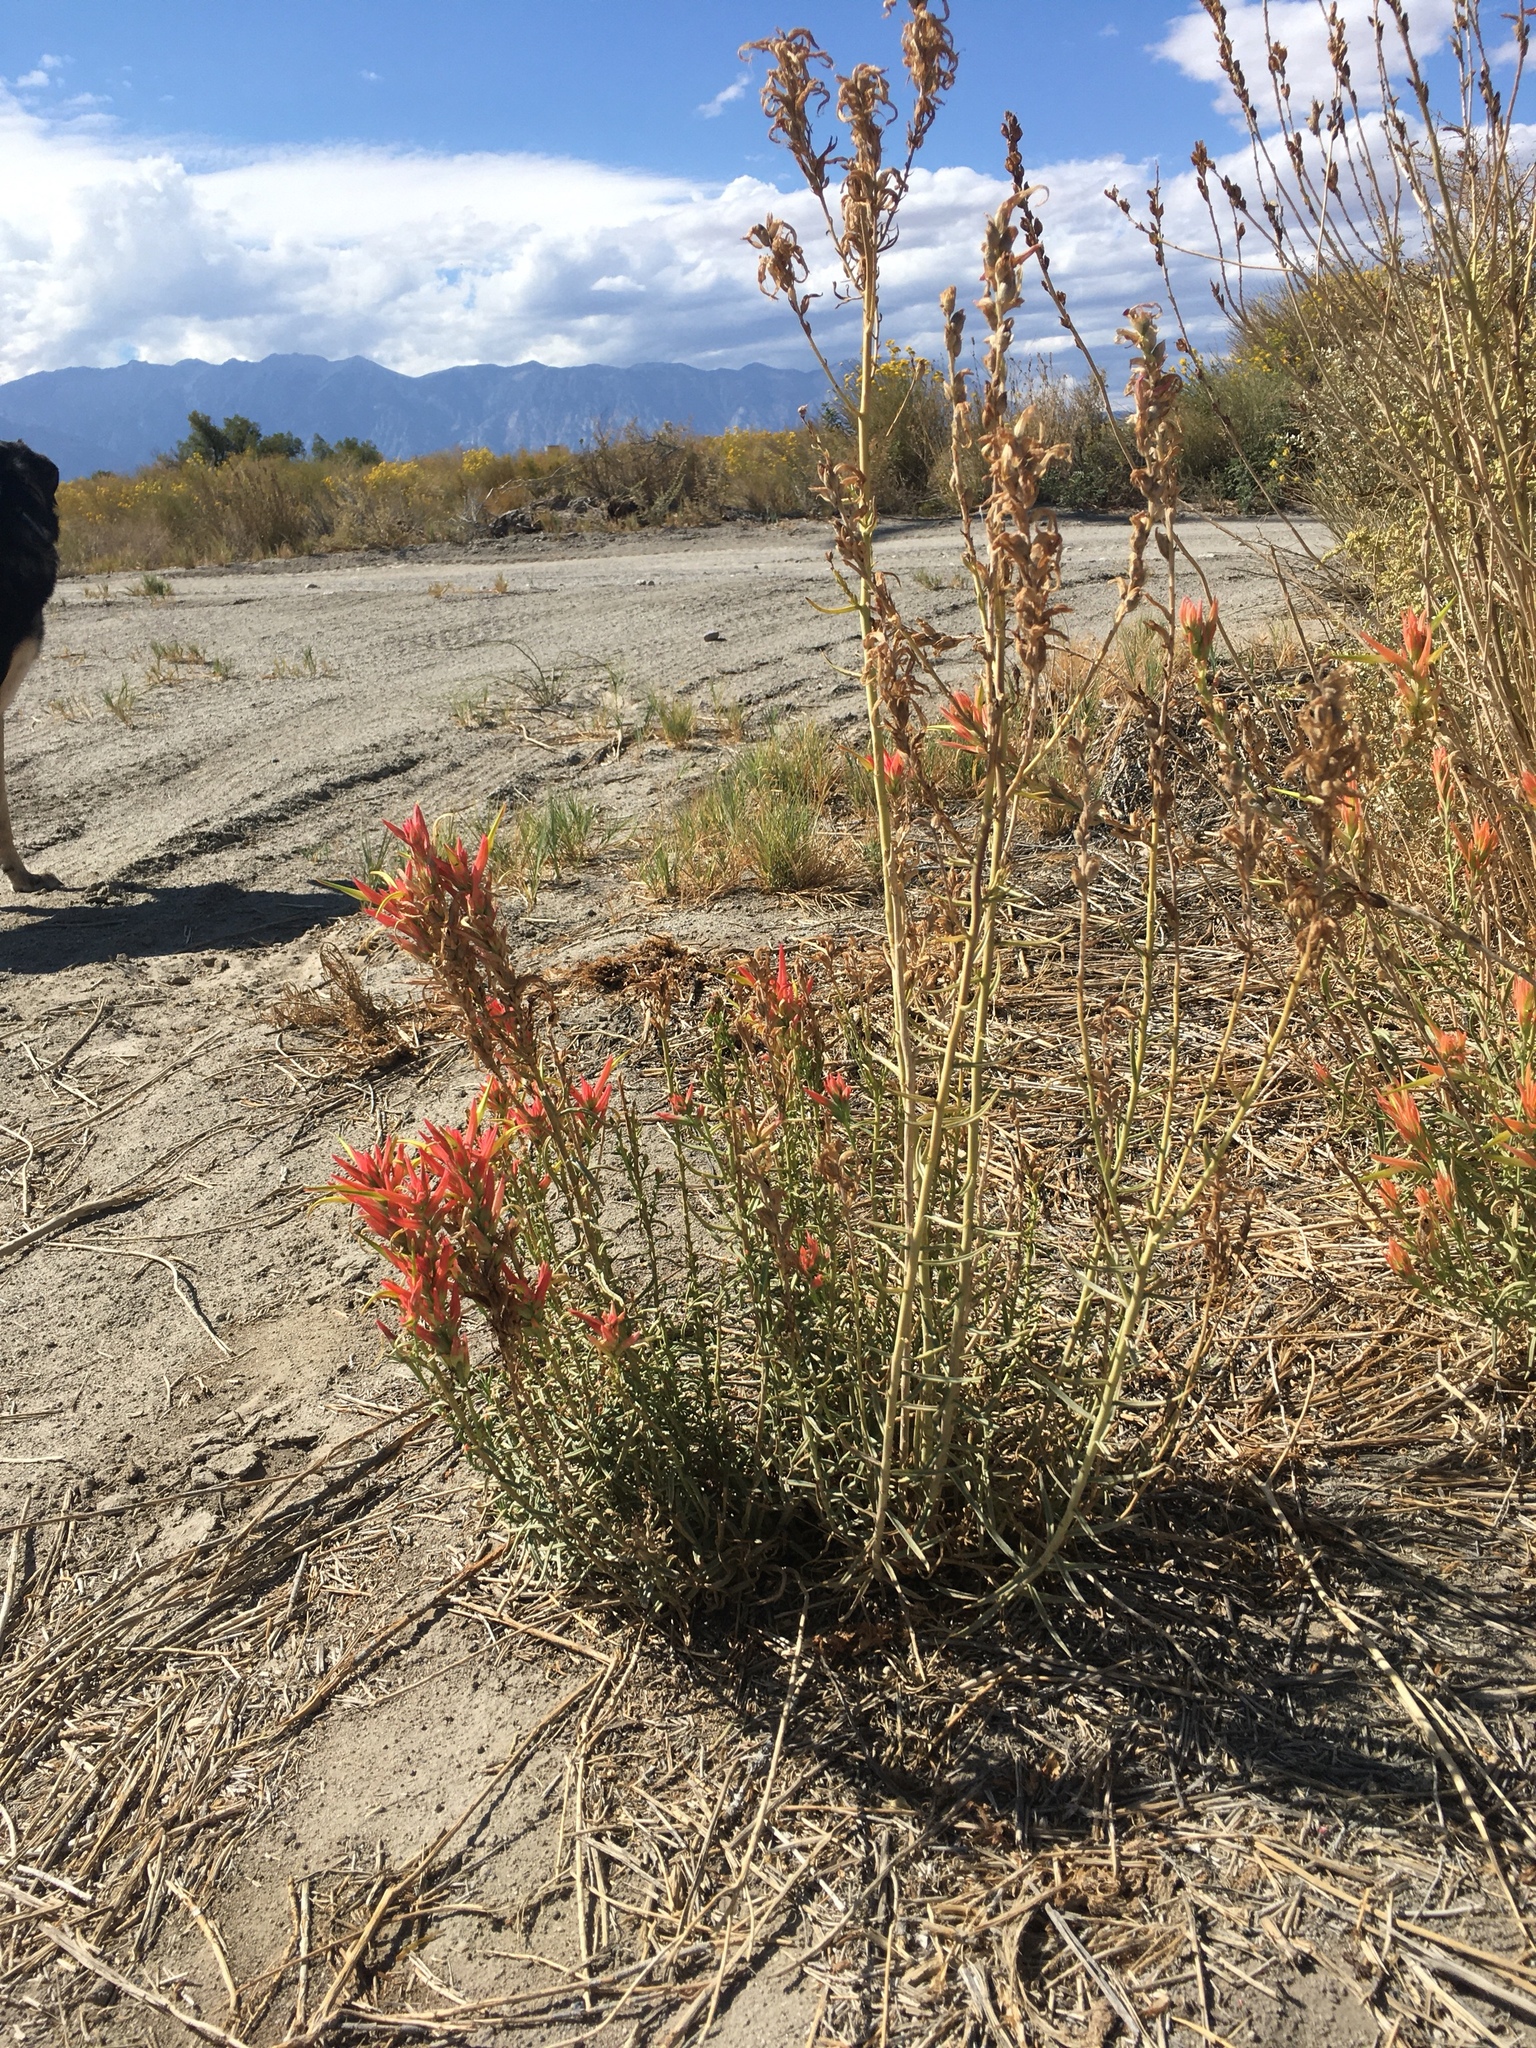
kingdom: Plantae
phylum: Tracheophyta
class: Magnoliopsida
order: Lamiales
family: Orobanchaceae
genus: Castilleja
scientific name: Castilleja linariifolia
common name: Wyoming paintbrush
